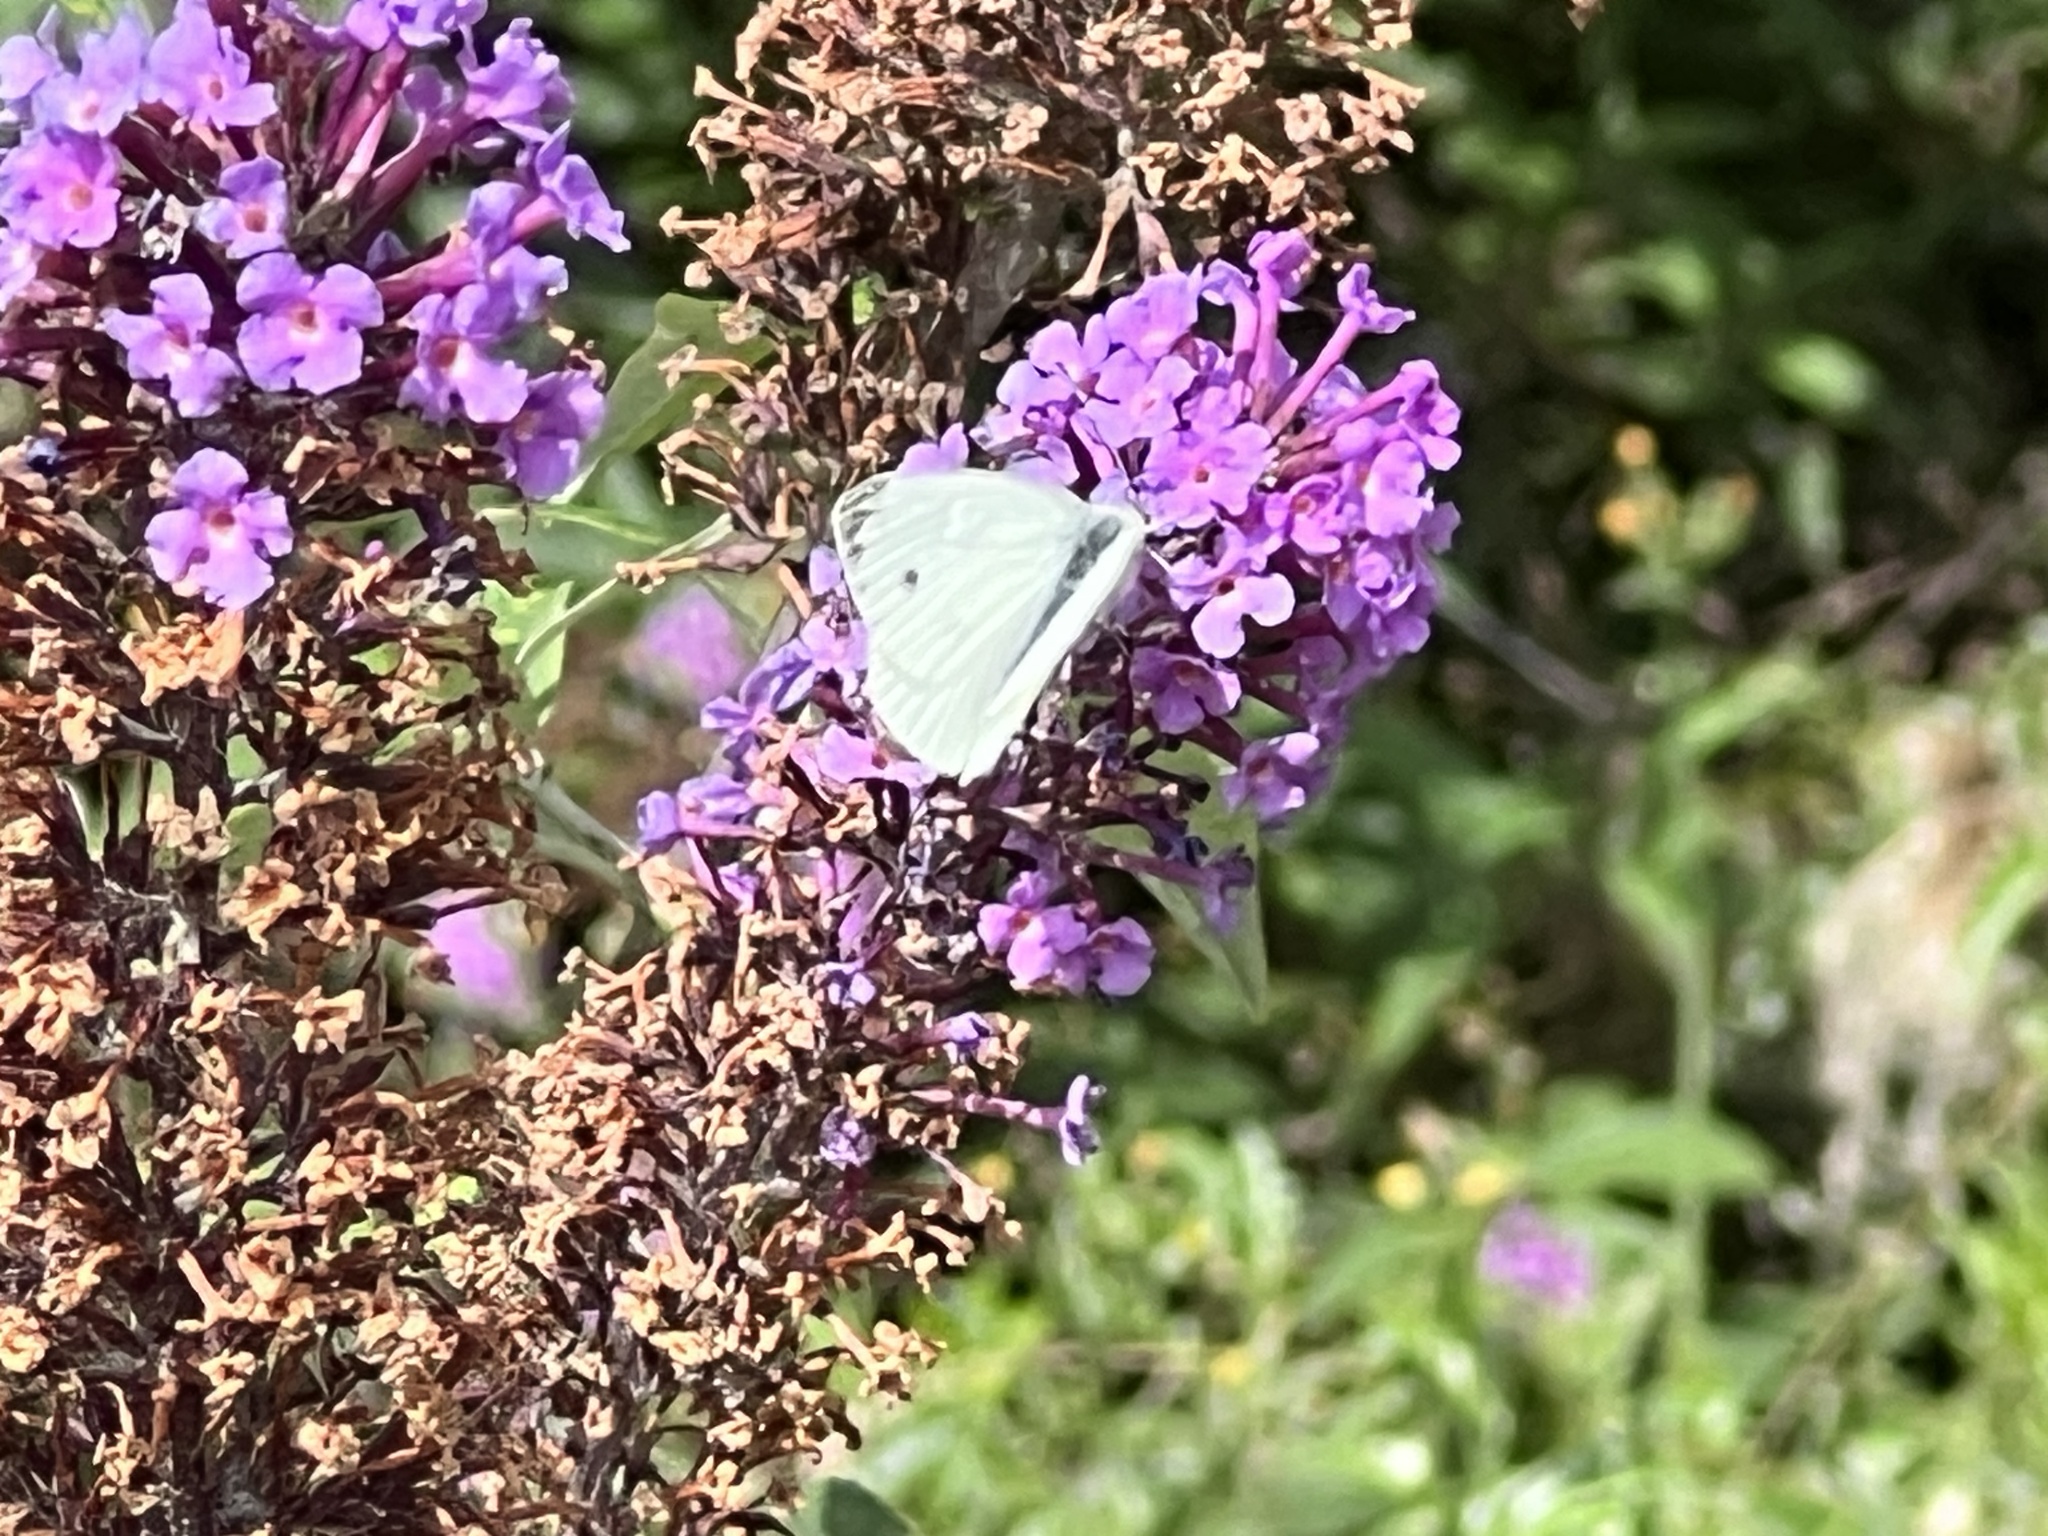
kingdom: Animalia
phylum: Arthropoda
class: Insecta
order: Lepidoptera
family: Pieridae
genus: Pieris
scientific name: Pieris napi
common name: Green-veined white
